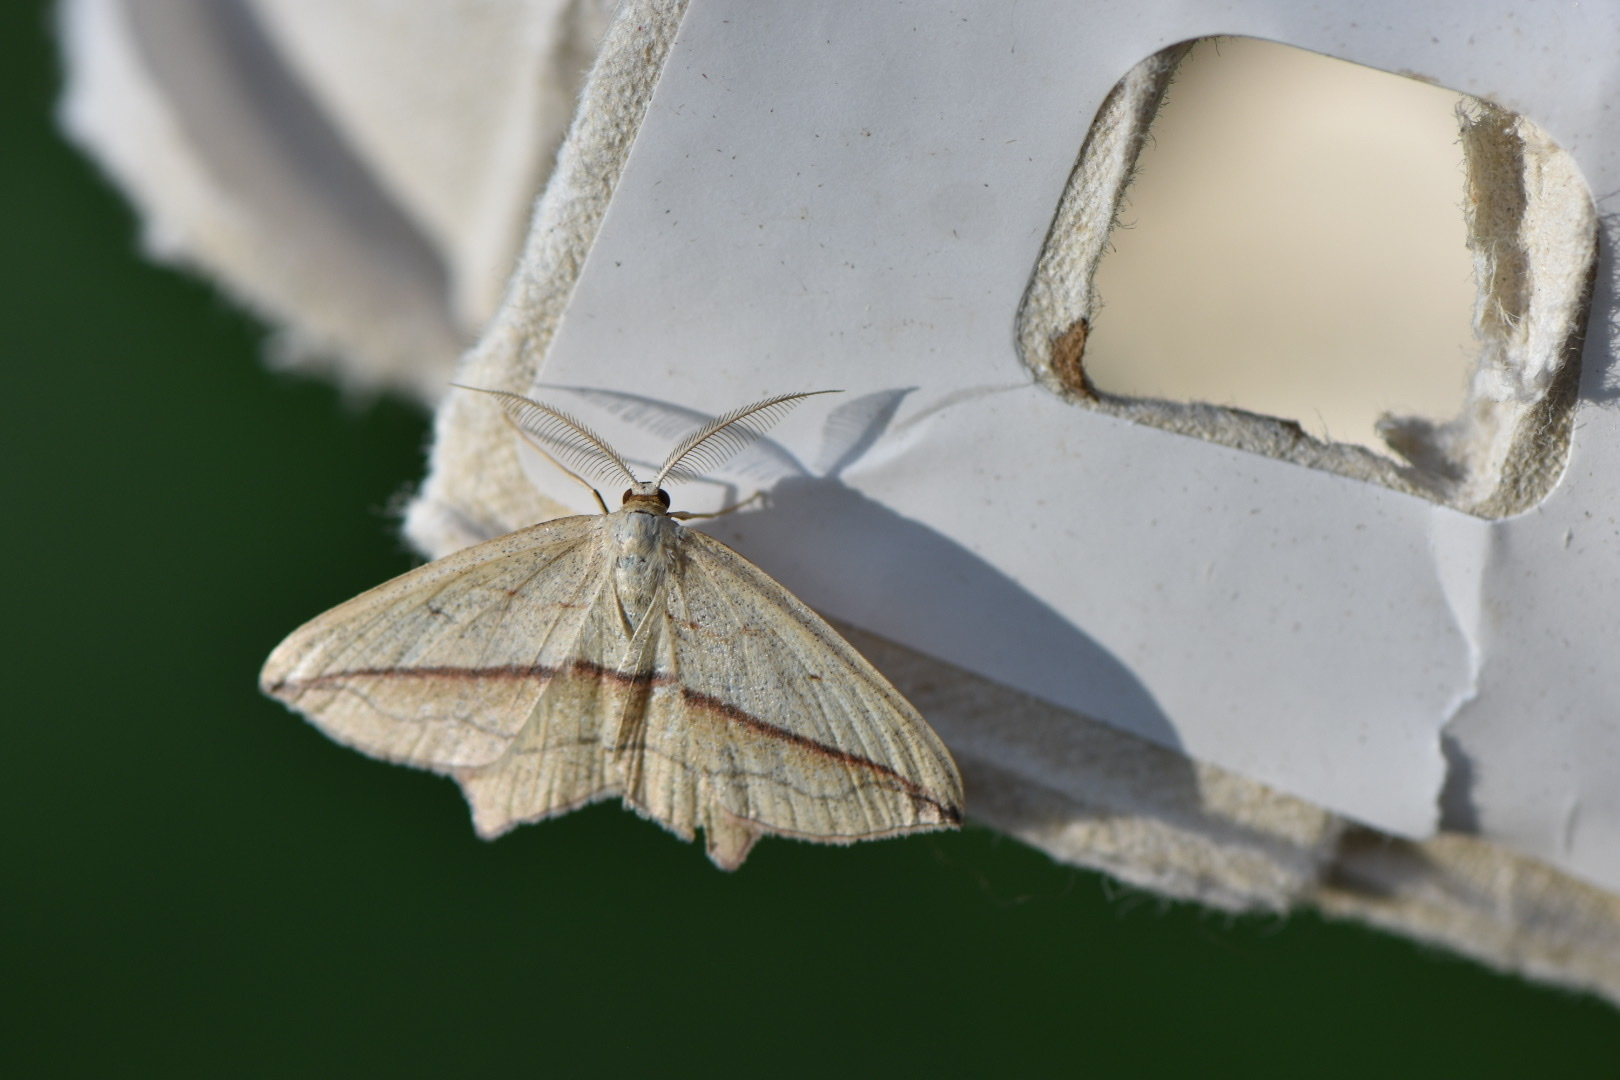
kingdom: Animalia
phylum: Arthropoda
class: Insecta
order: Lepidoptera
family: Geometridae
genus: Timandra
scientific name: Timandra comae
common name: Blood-vein
